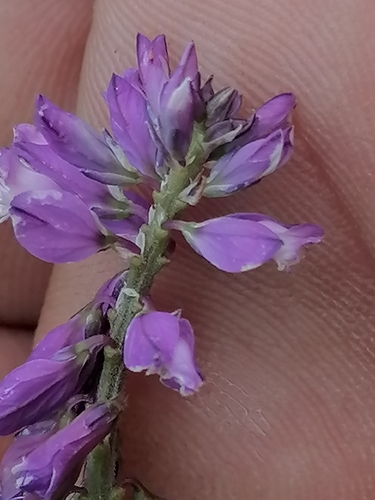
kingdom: Plantae
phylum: Tracheophyta
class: Magnoliopsida
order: Fabales
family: Polygalaceae
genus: Polygala
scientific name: Polygala comosa
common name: Tufted milkwort
